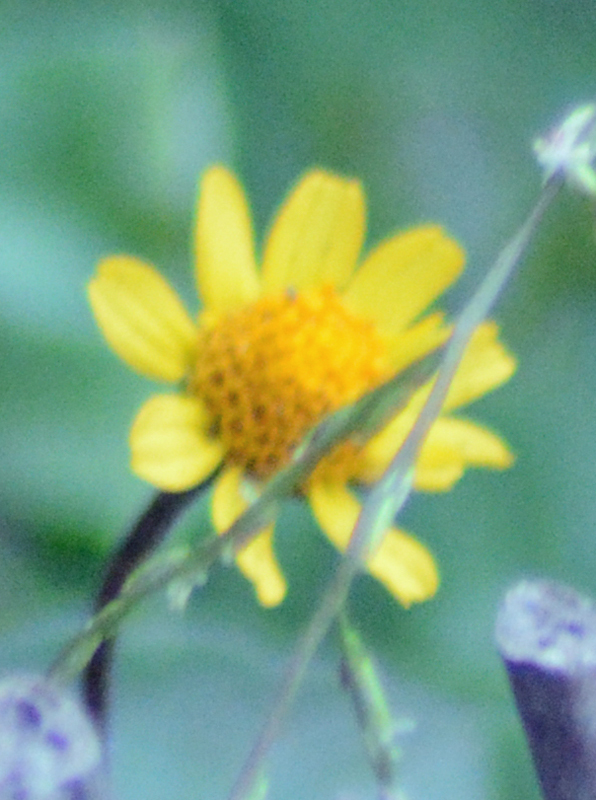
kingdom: Plantae
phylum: Tracheophyta
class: Magnoliopsida
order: Asterales
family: Asteraceae
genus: Acmella
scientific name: Acmella repens
